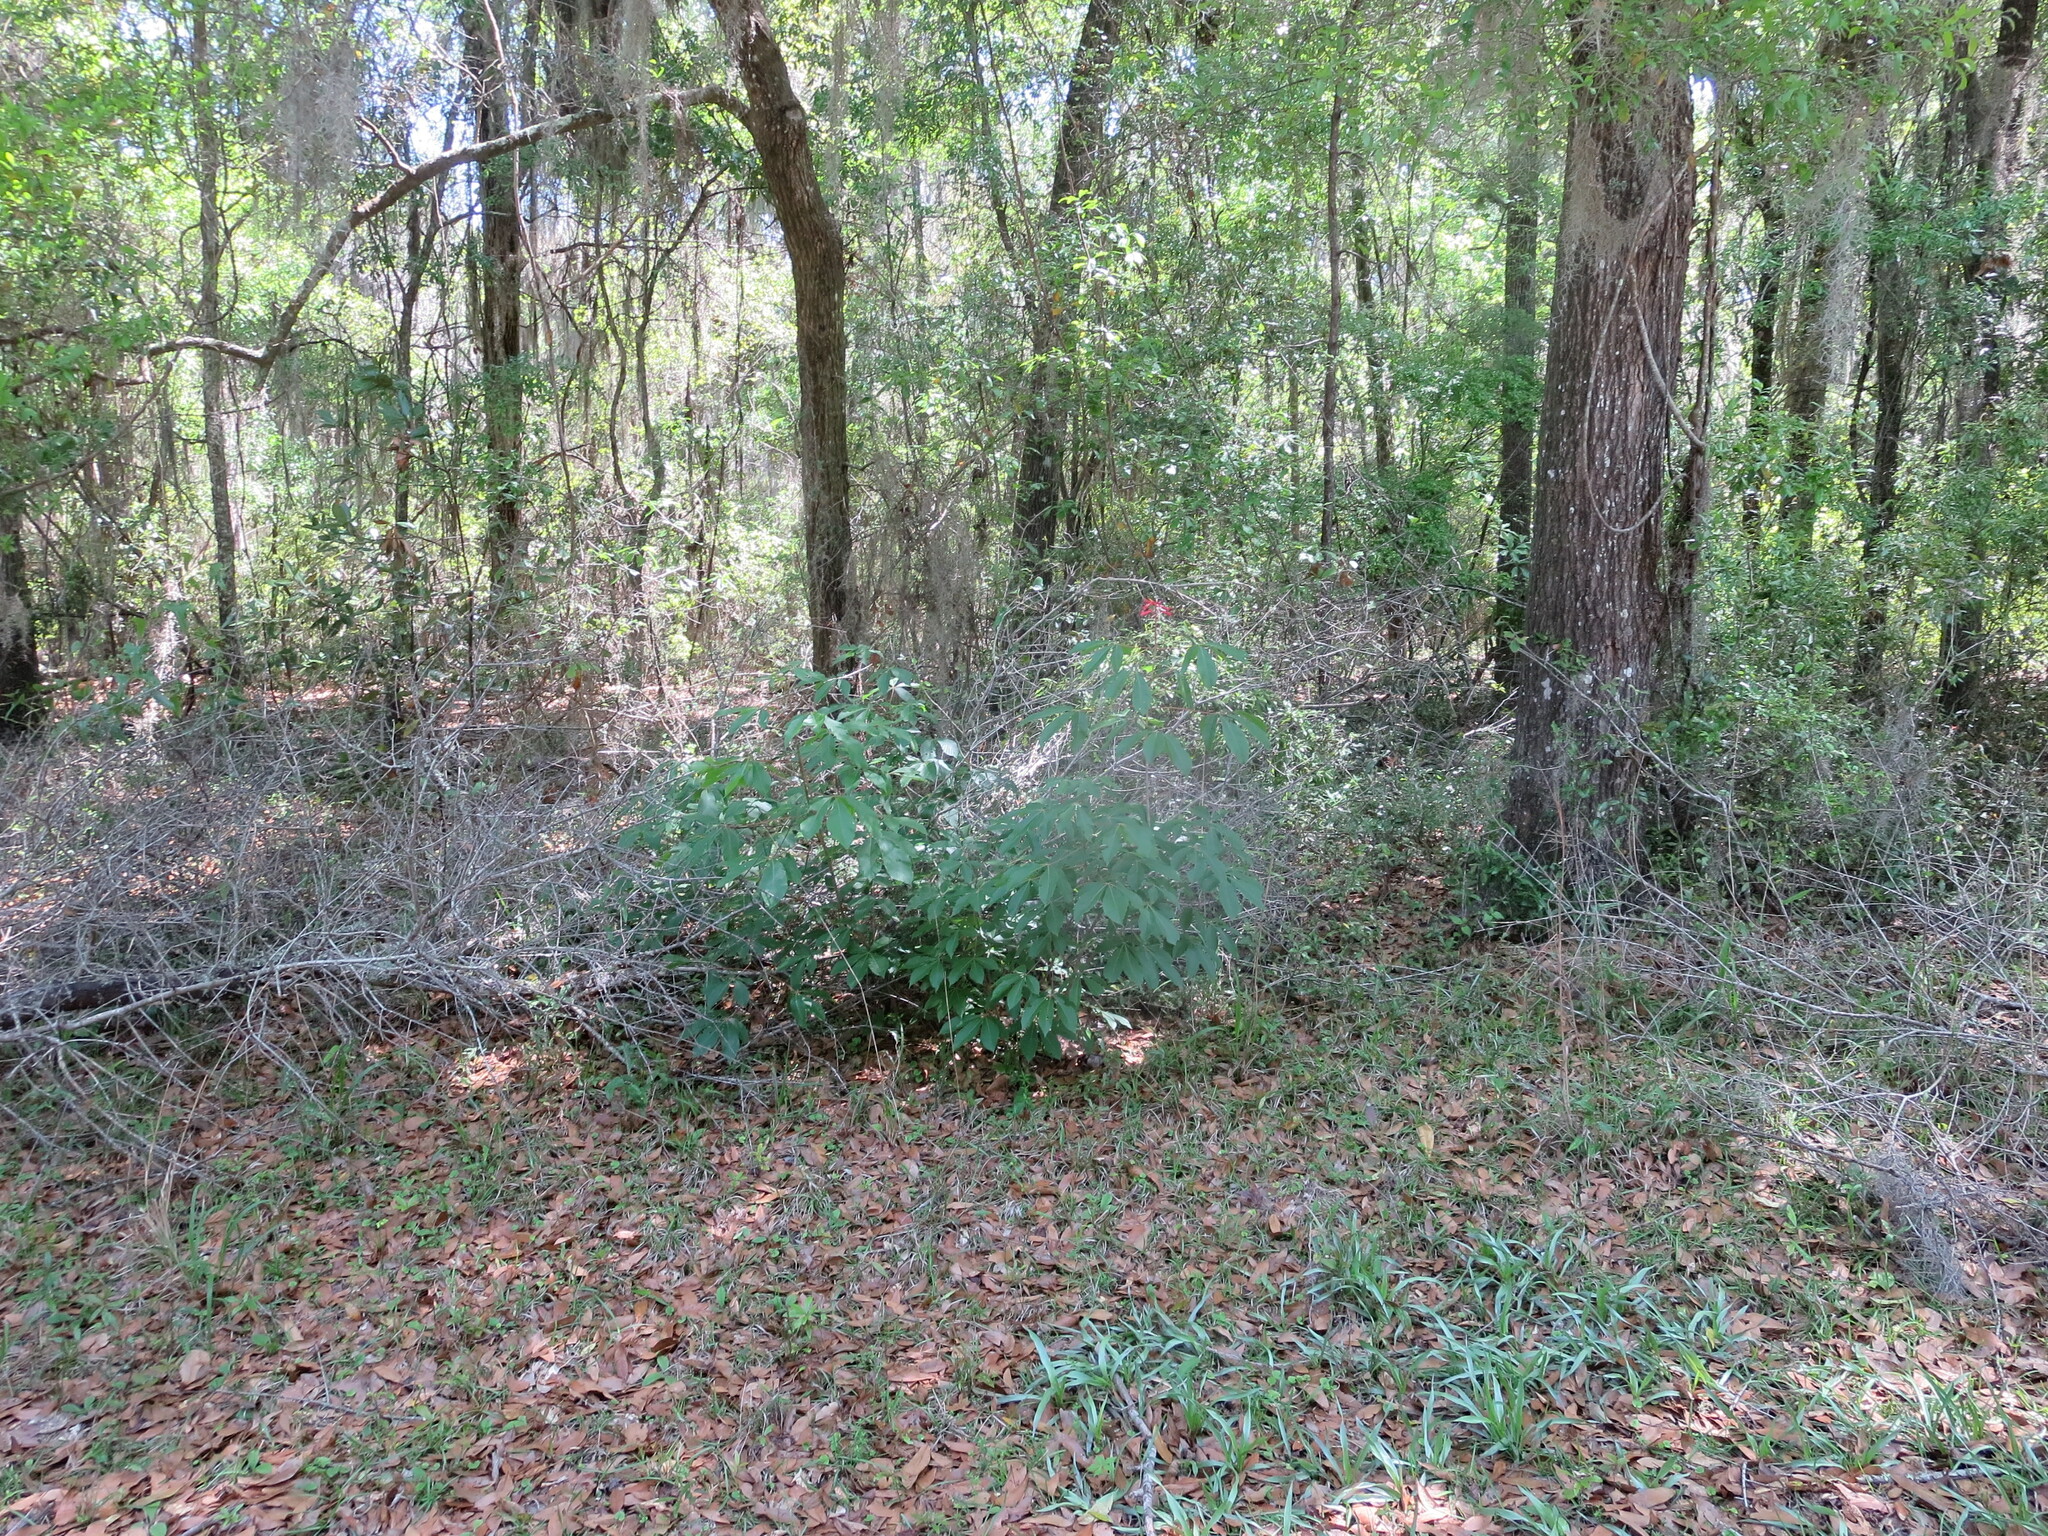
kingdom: Plantae
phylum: Tracheophyta
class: Magnoliopsida
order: Sapindales
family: Sapindaceae
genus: Aesculus
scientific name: Aesculus pavia
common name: Red buckeye
